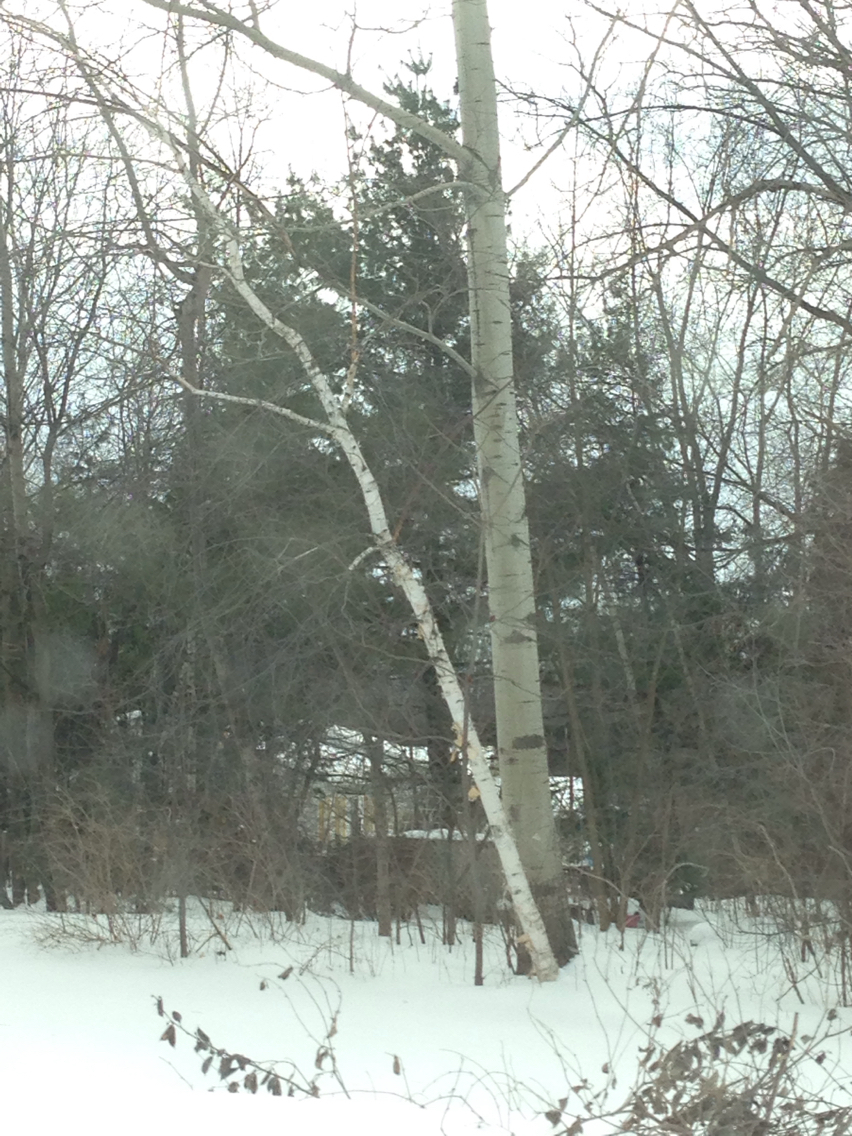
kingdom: Plantae
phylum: Tracheophyta
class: Magnoliopsida
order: Fagales
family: Betulaceae
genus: Betula
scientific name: Betula papyrifera
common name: Paper birch
